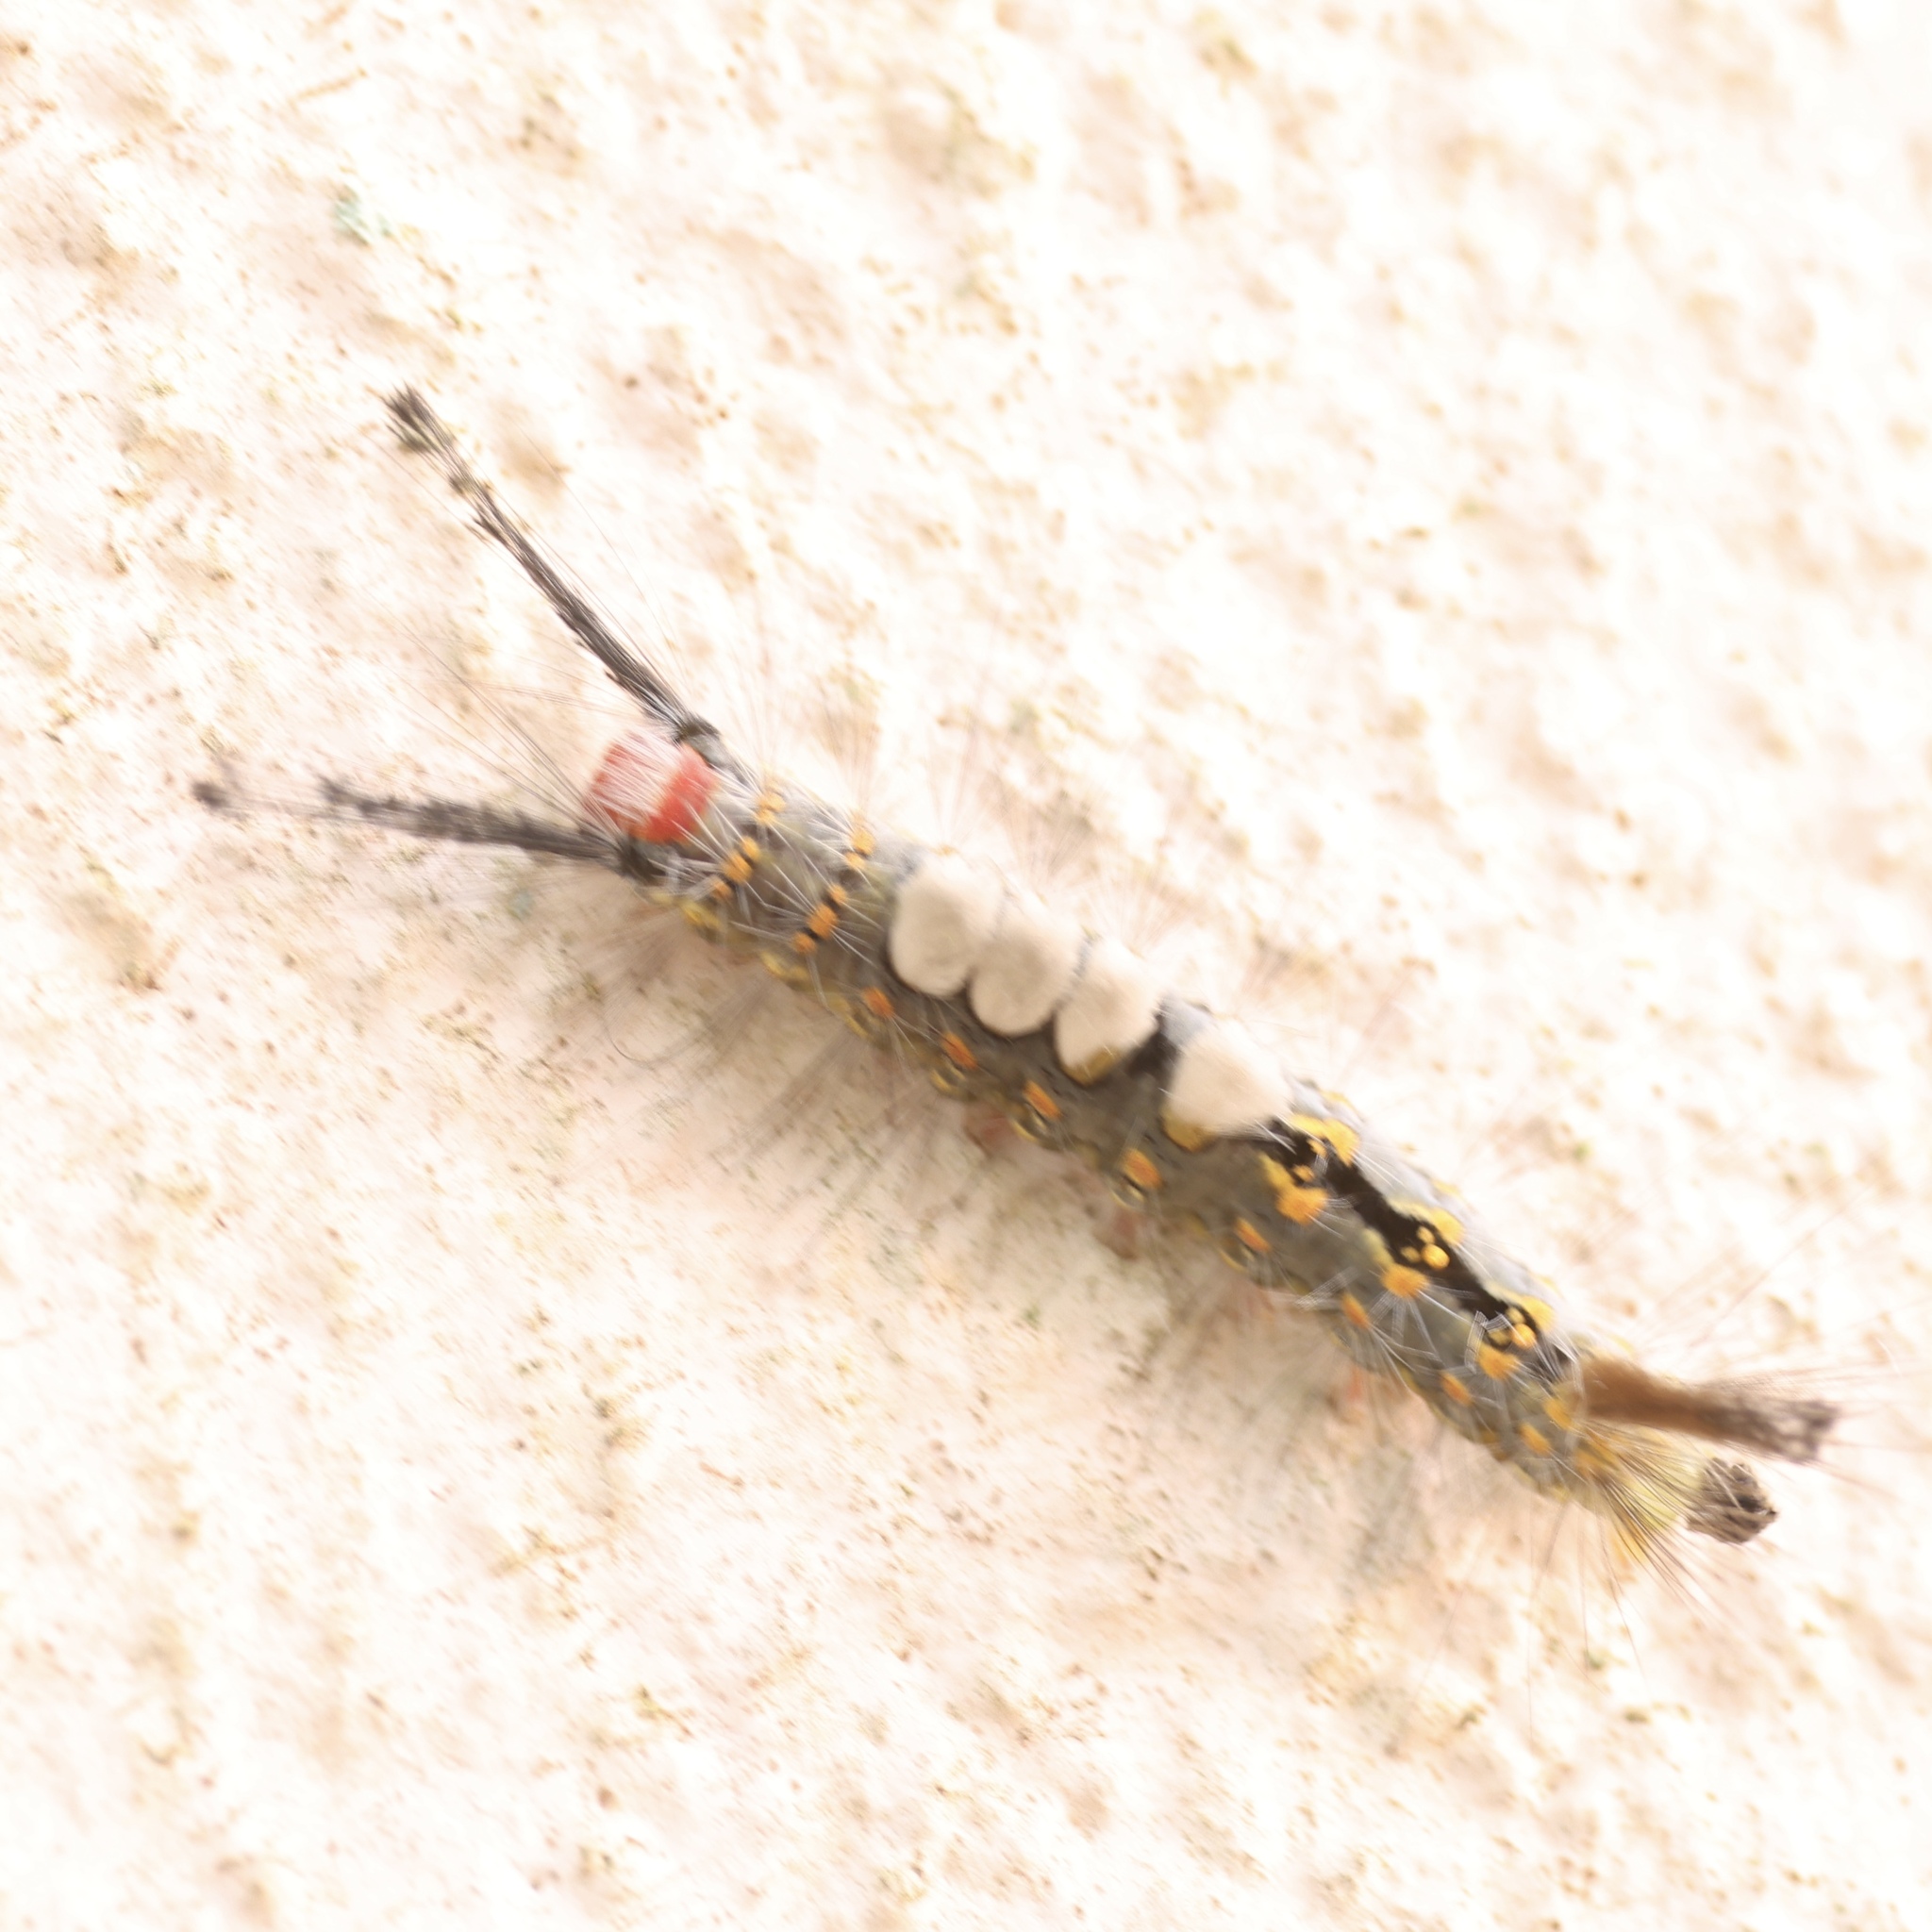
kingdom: Animalia
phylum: Arthropoda
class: Insecta
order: Lepidoptera
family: Erebidae
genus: Orgyia
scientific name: Orgyia detrita
